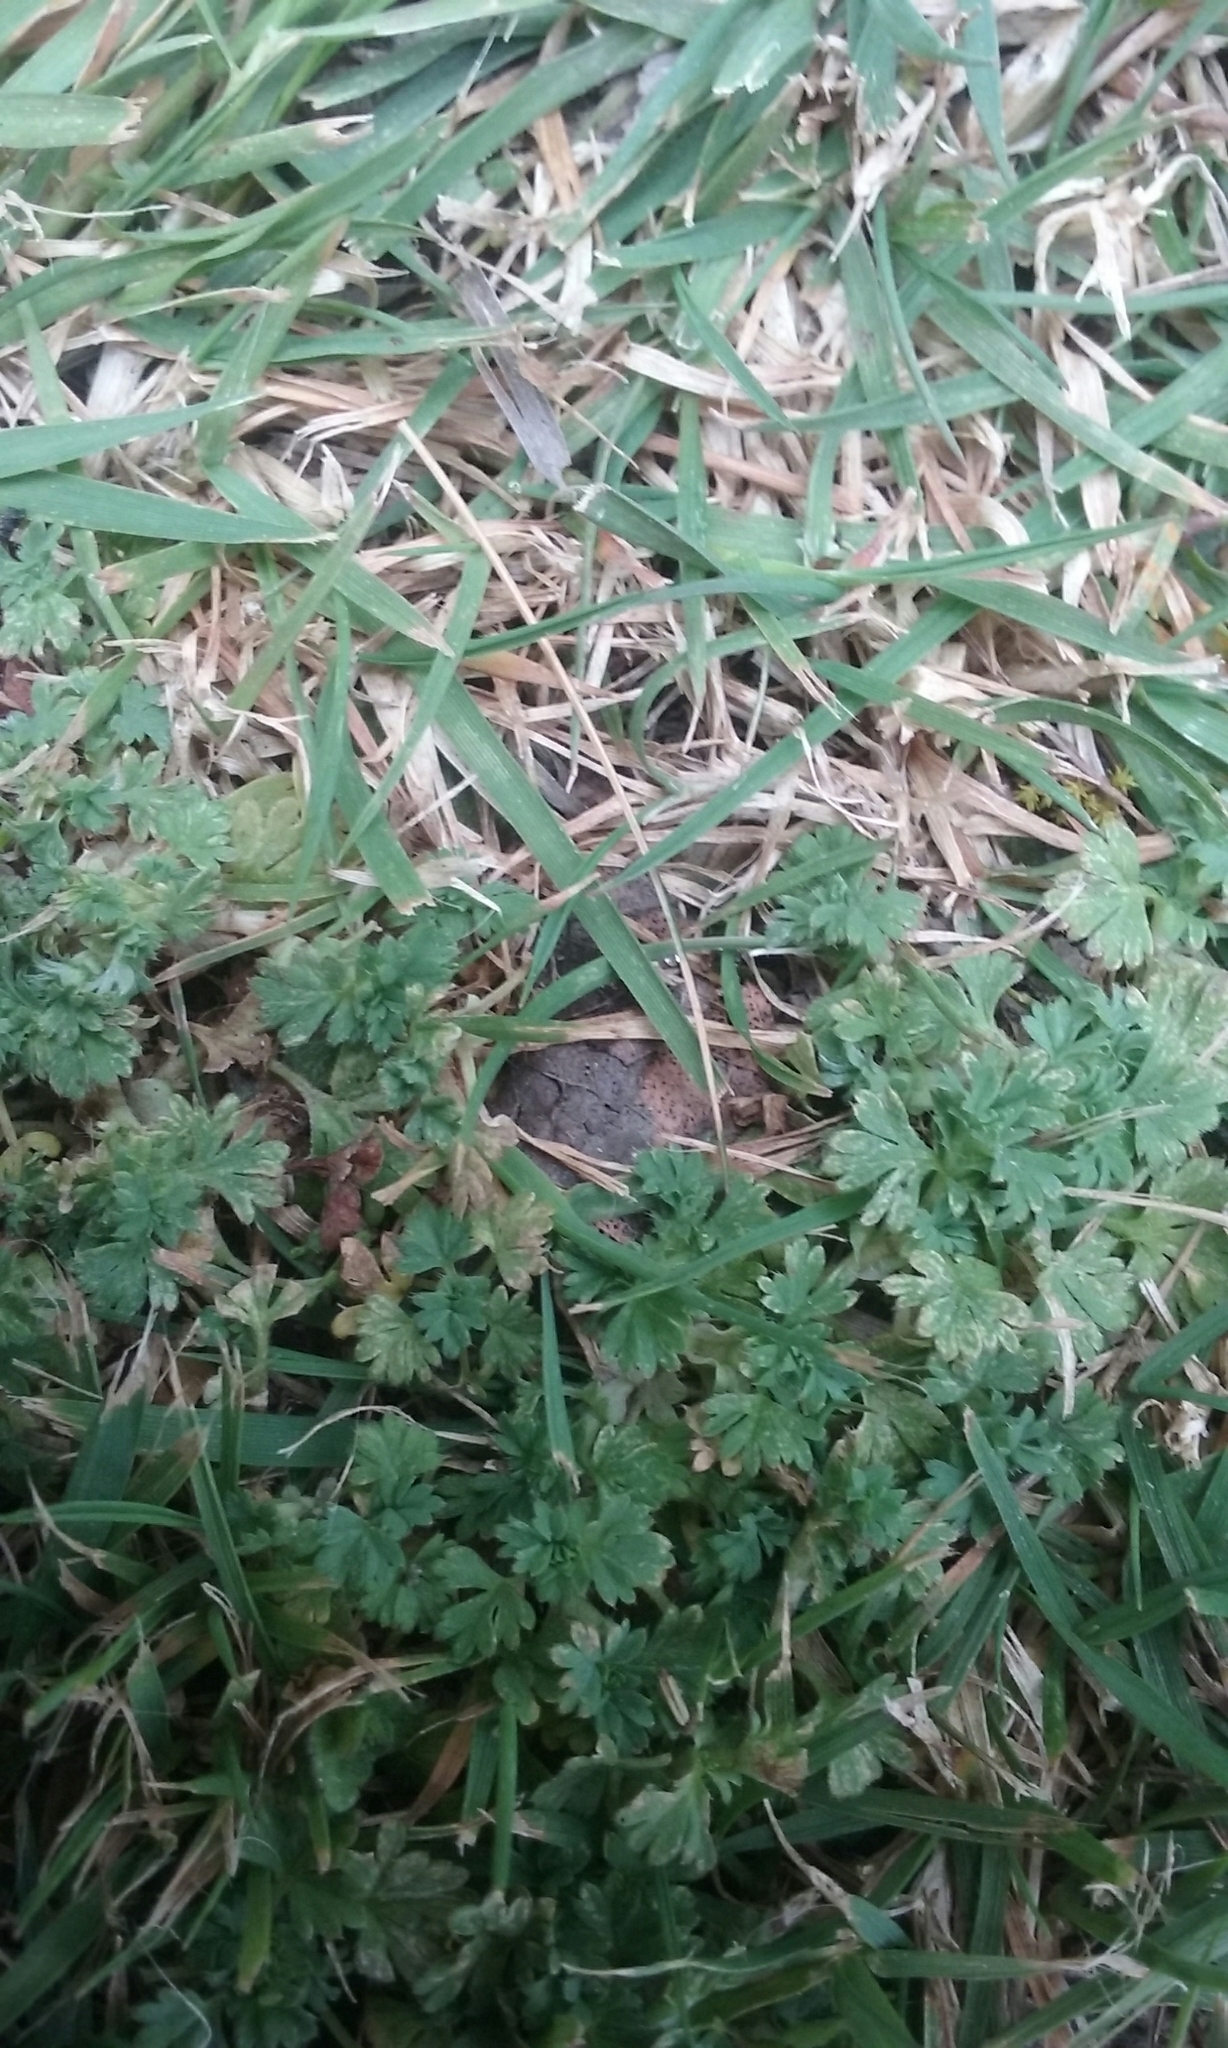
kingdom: Plantae
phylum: Tracheophyta
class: Magnoliopsida
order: Rosales
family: Rosaceae
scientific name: Rosaceae
